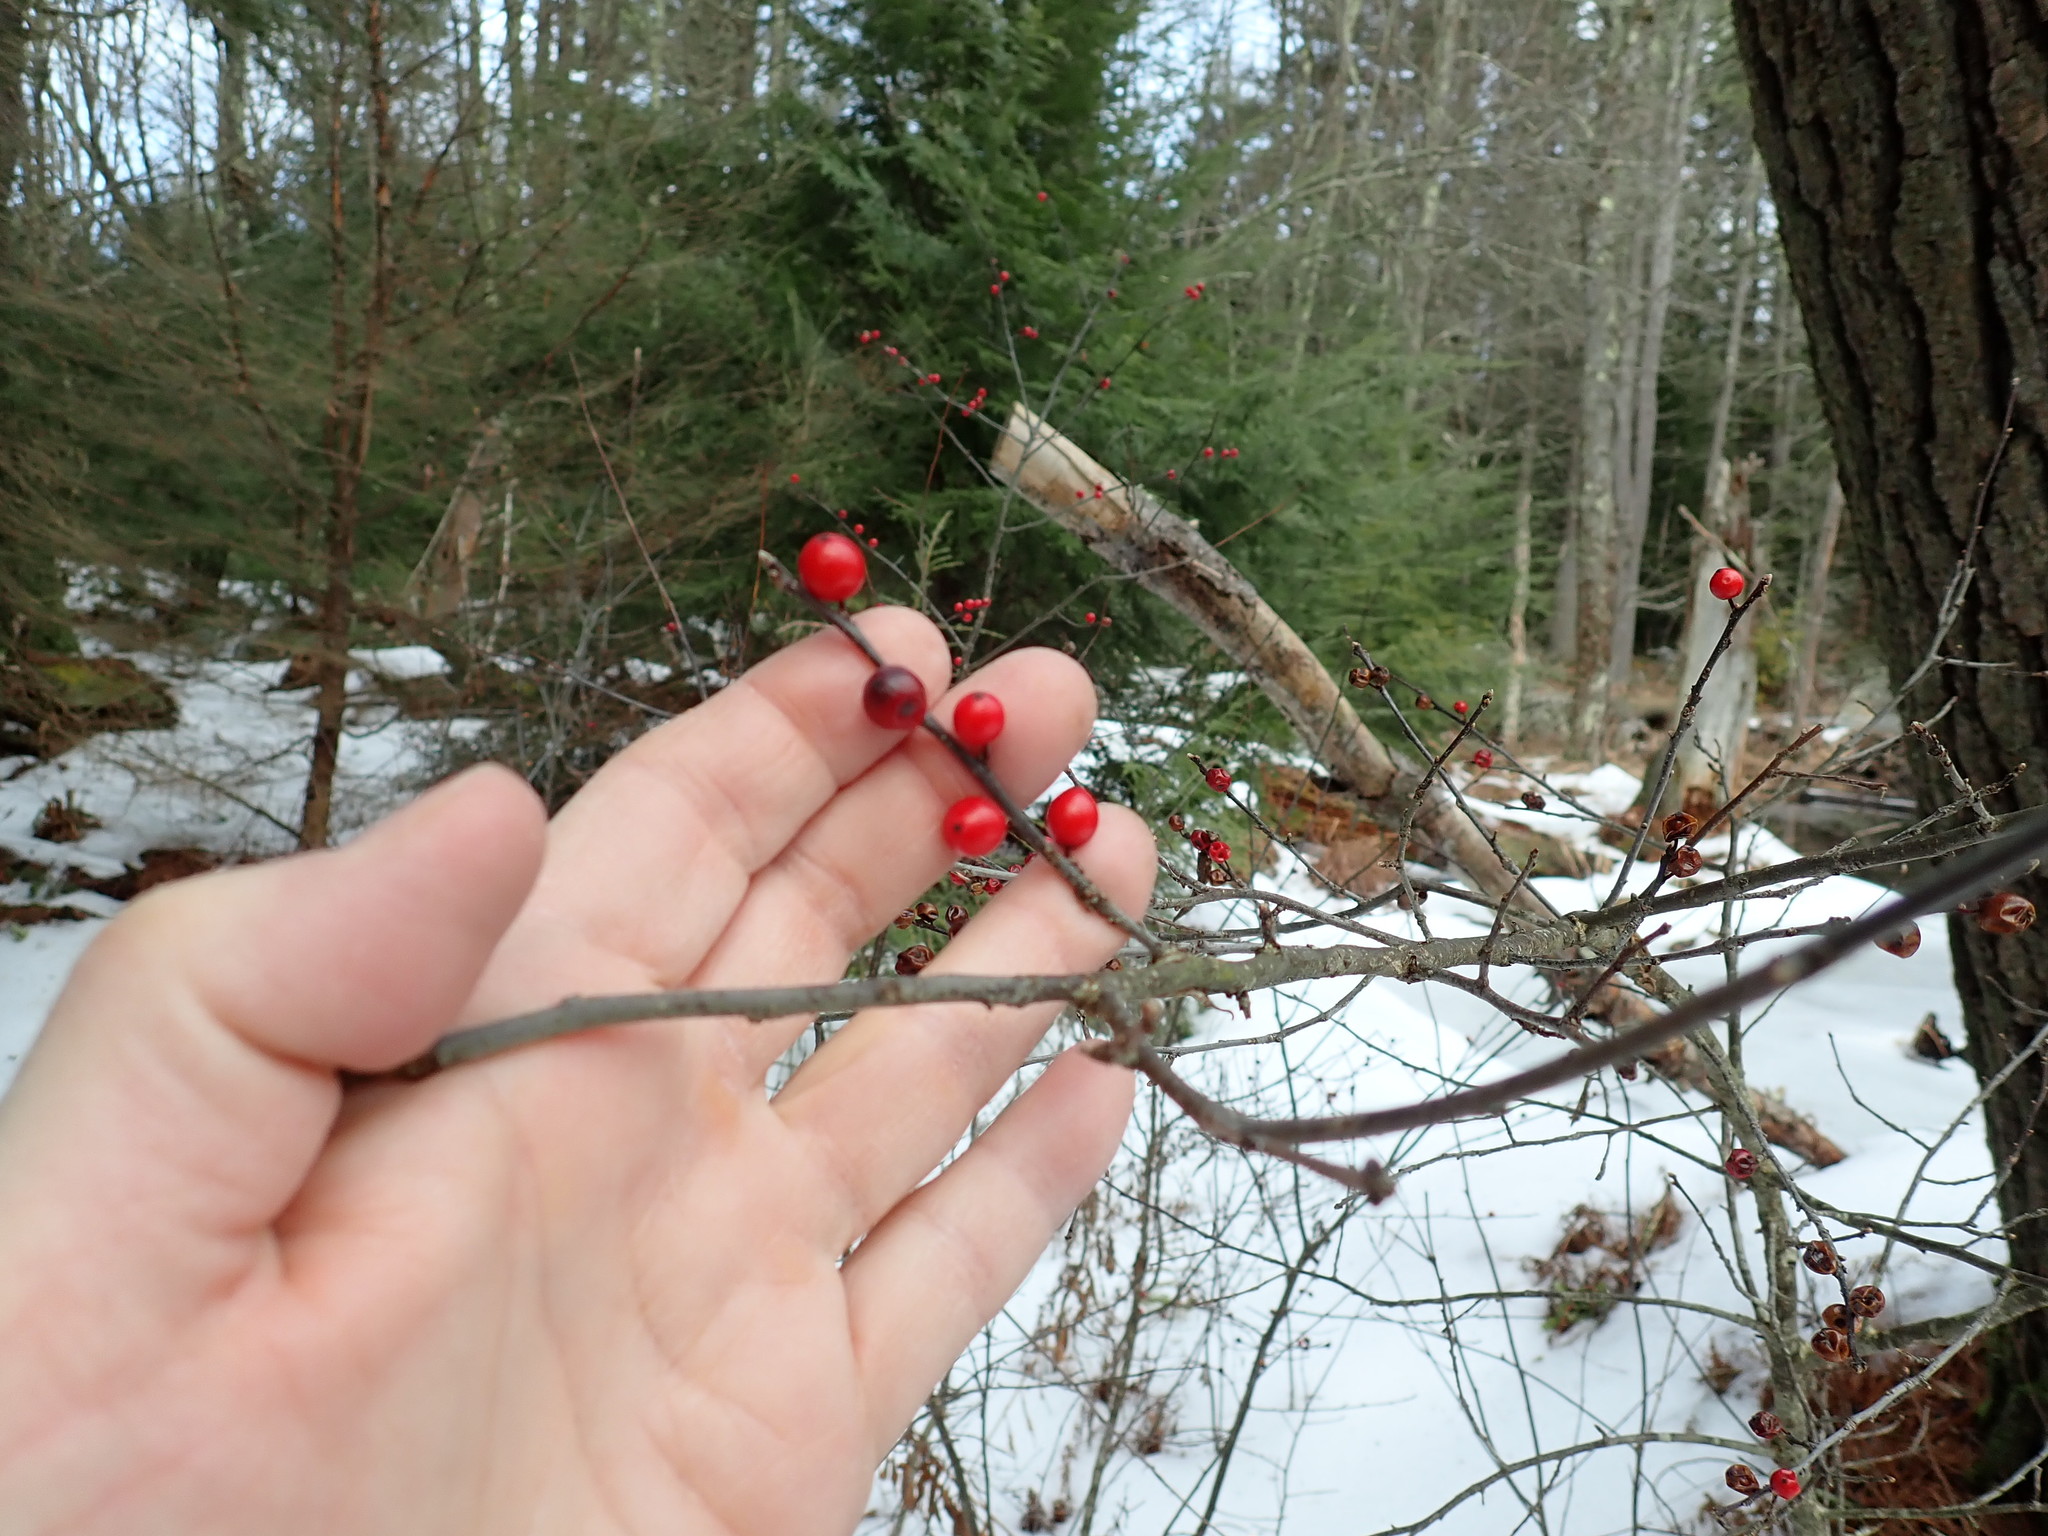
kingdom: Plantae
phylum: Tracheophyta
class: Magnoliopsida
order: Aquifoliales
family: Aquifoliaceae
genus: Ilex
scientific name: Ilex verticillata
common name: Virginia winterberry
